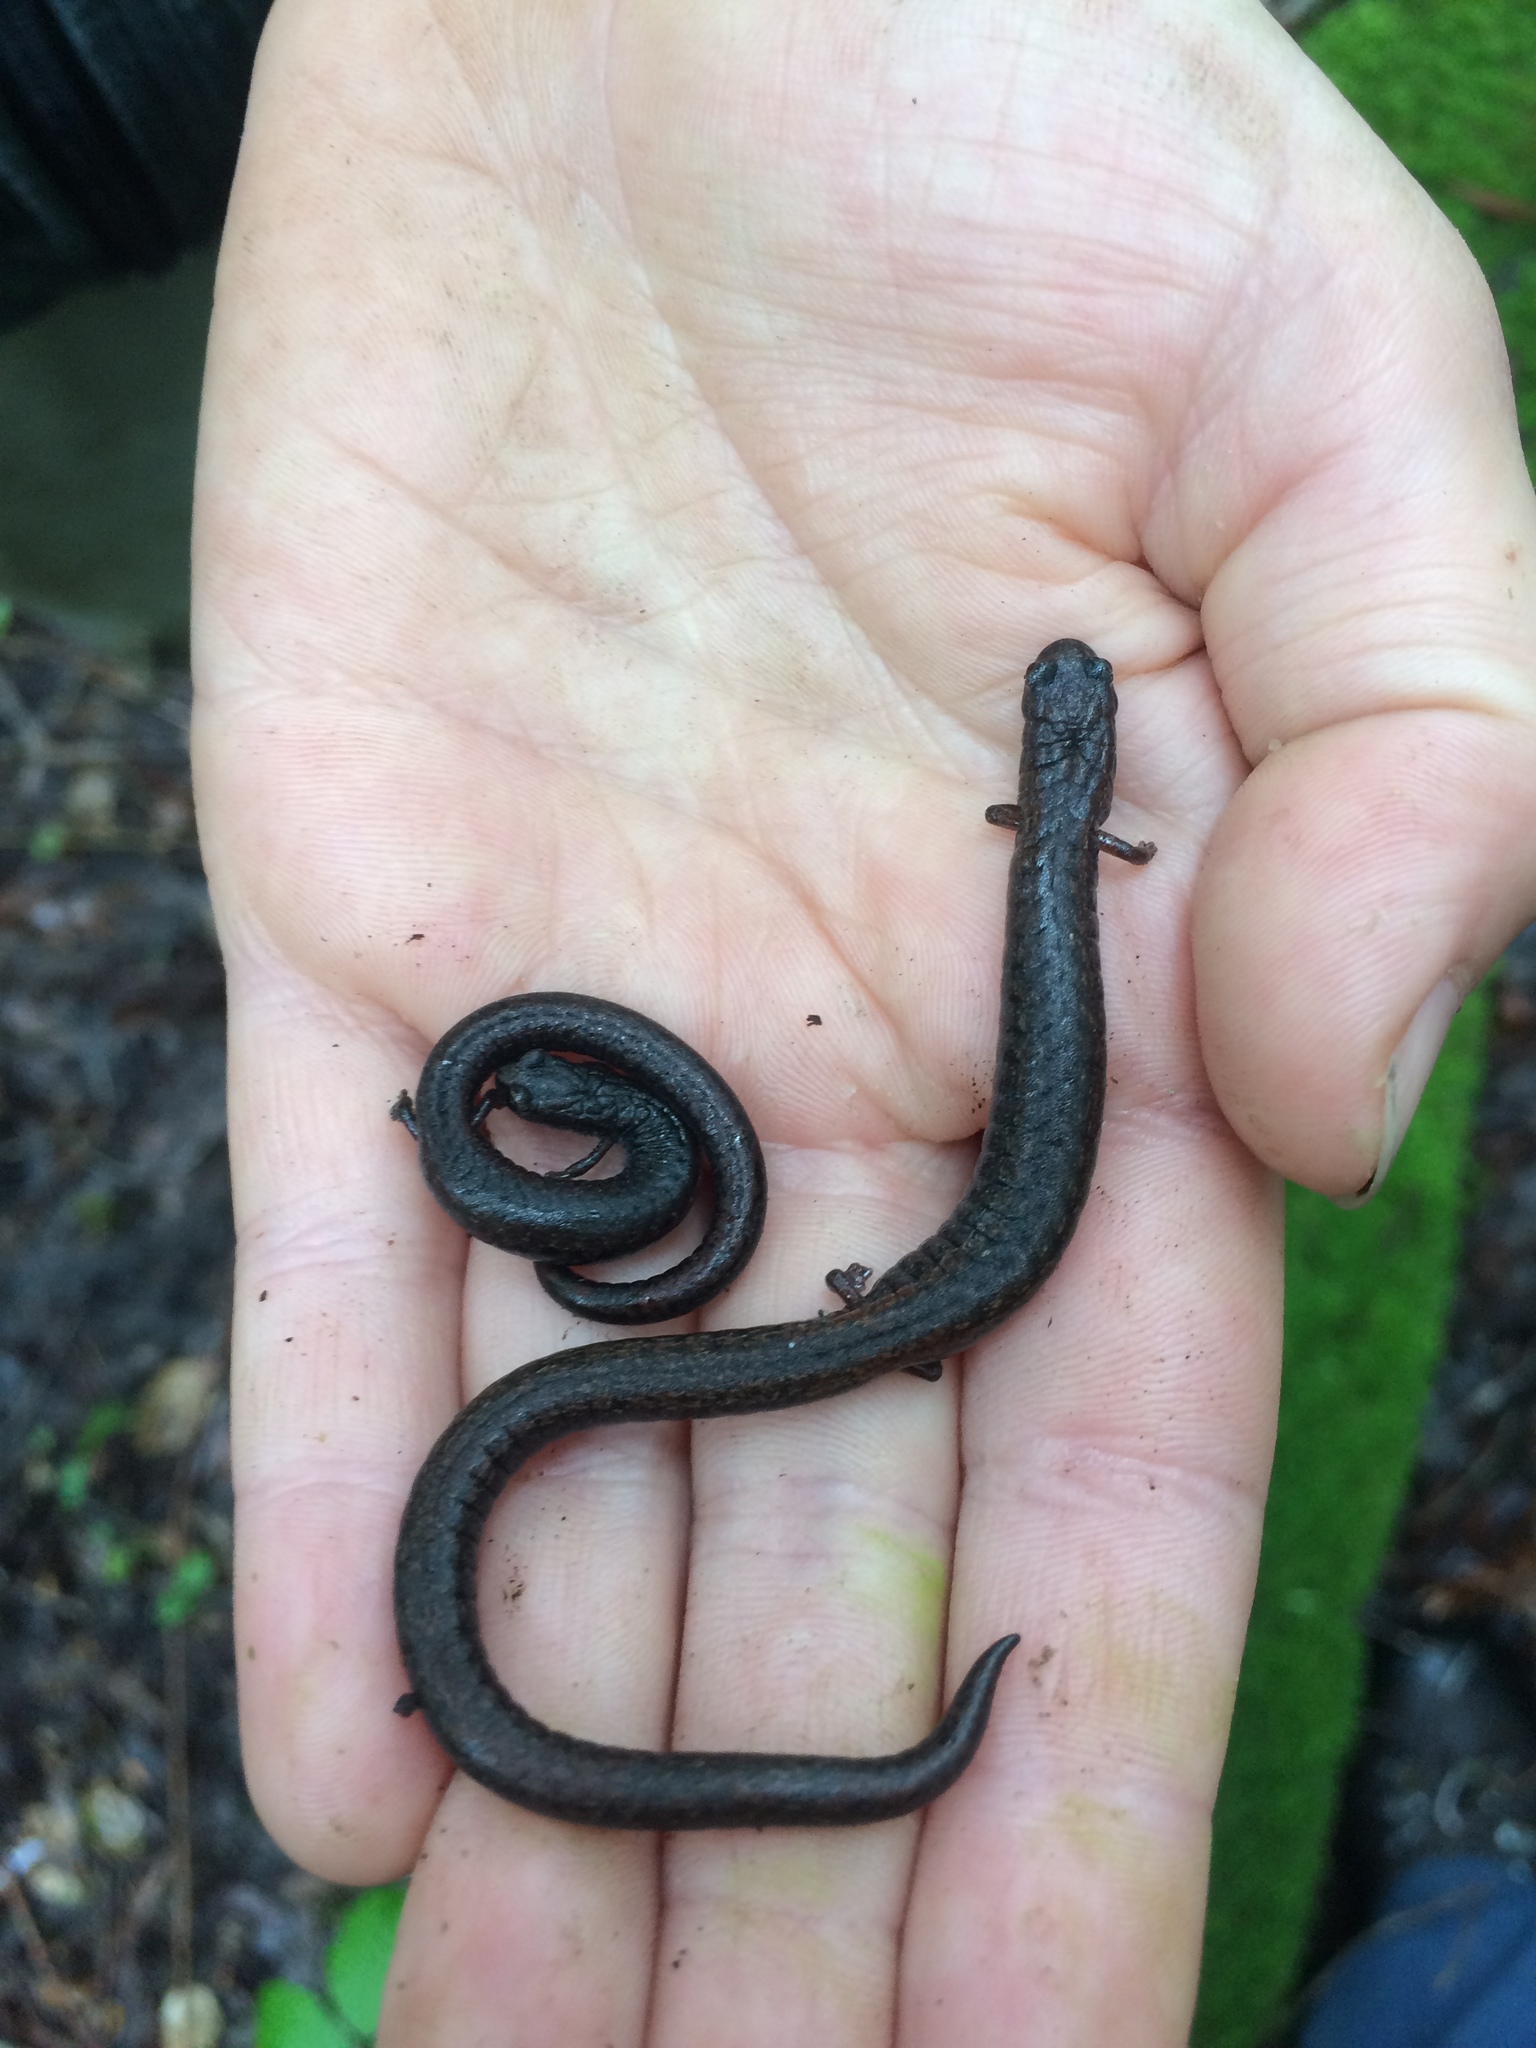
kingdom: Animalia
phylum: Chordata
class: Amphibia
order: Caudata
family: Plethodontidae
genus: Batrachoseps
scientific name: Batrachoseps attenuatus
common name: California slender salamander
